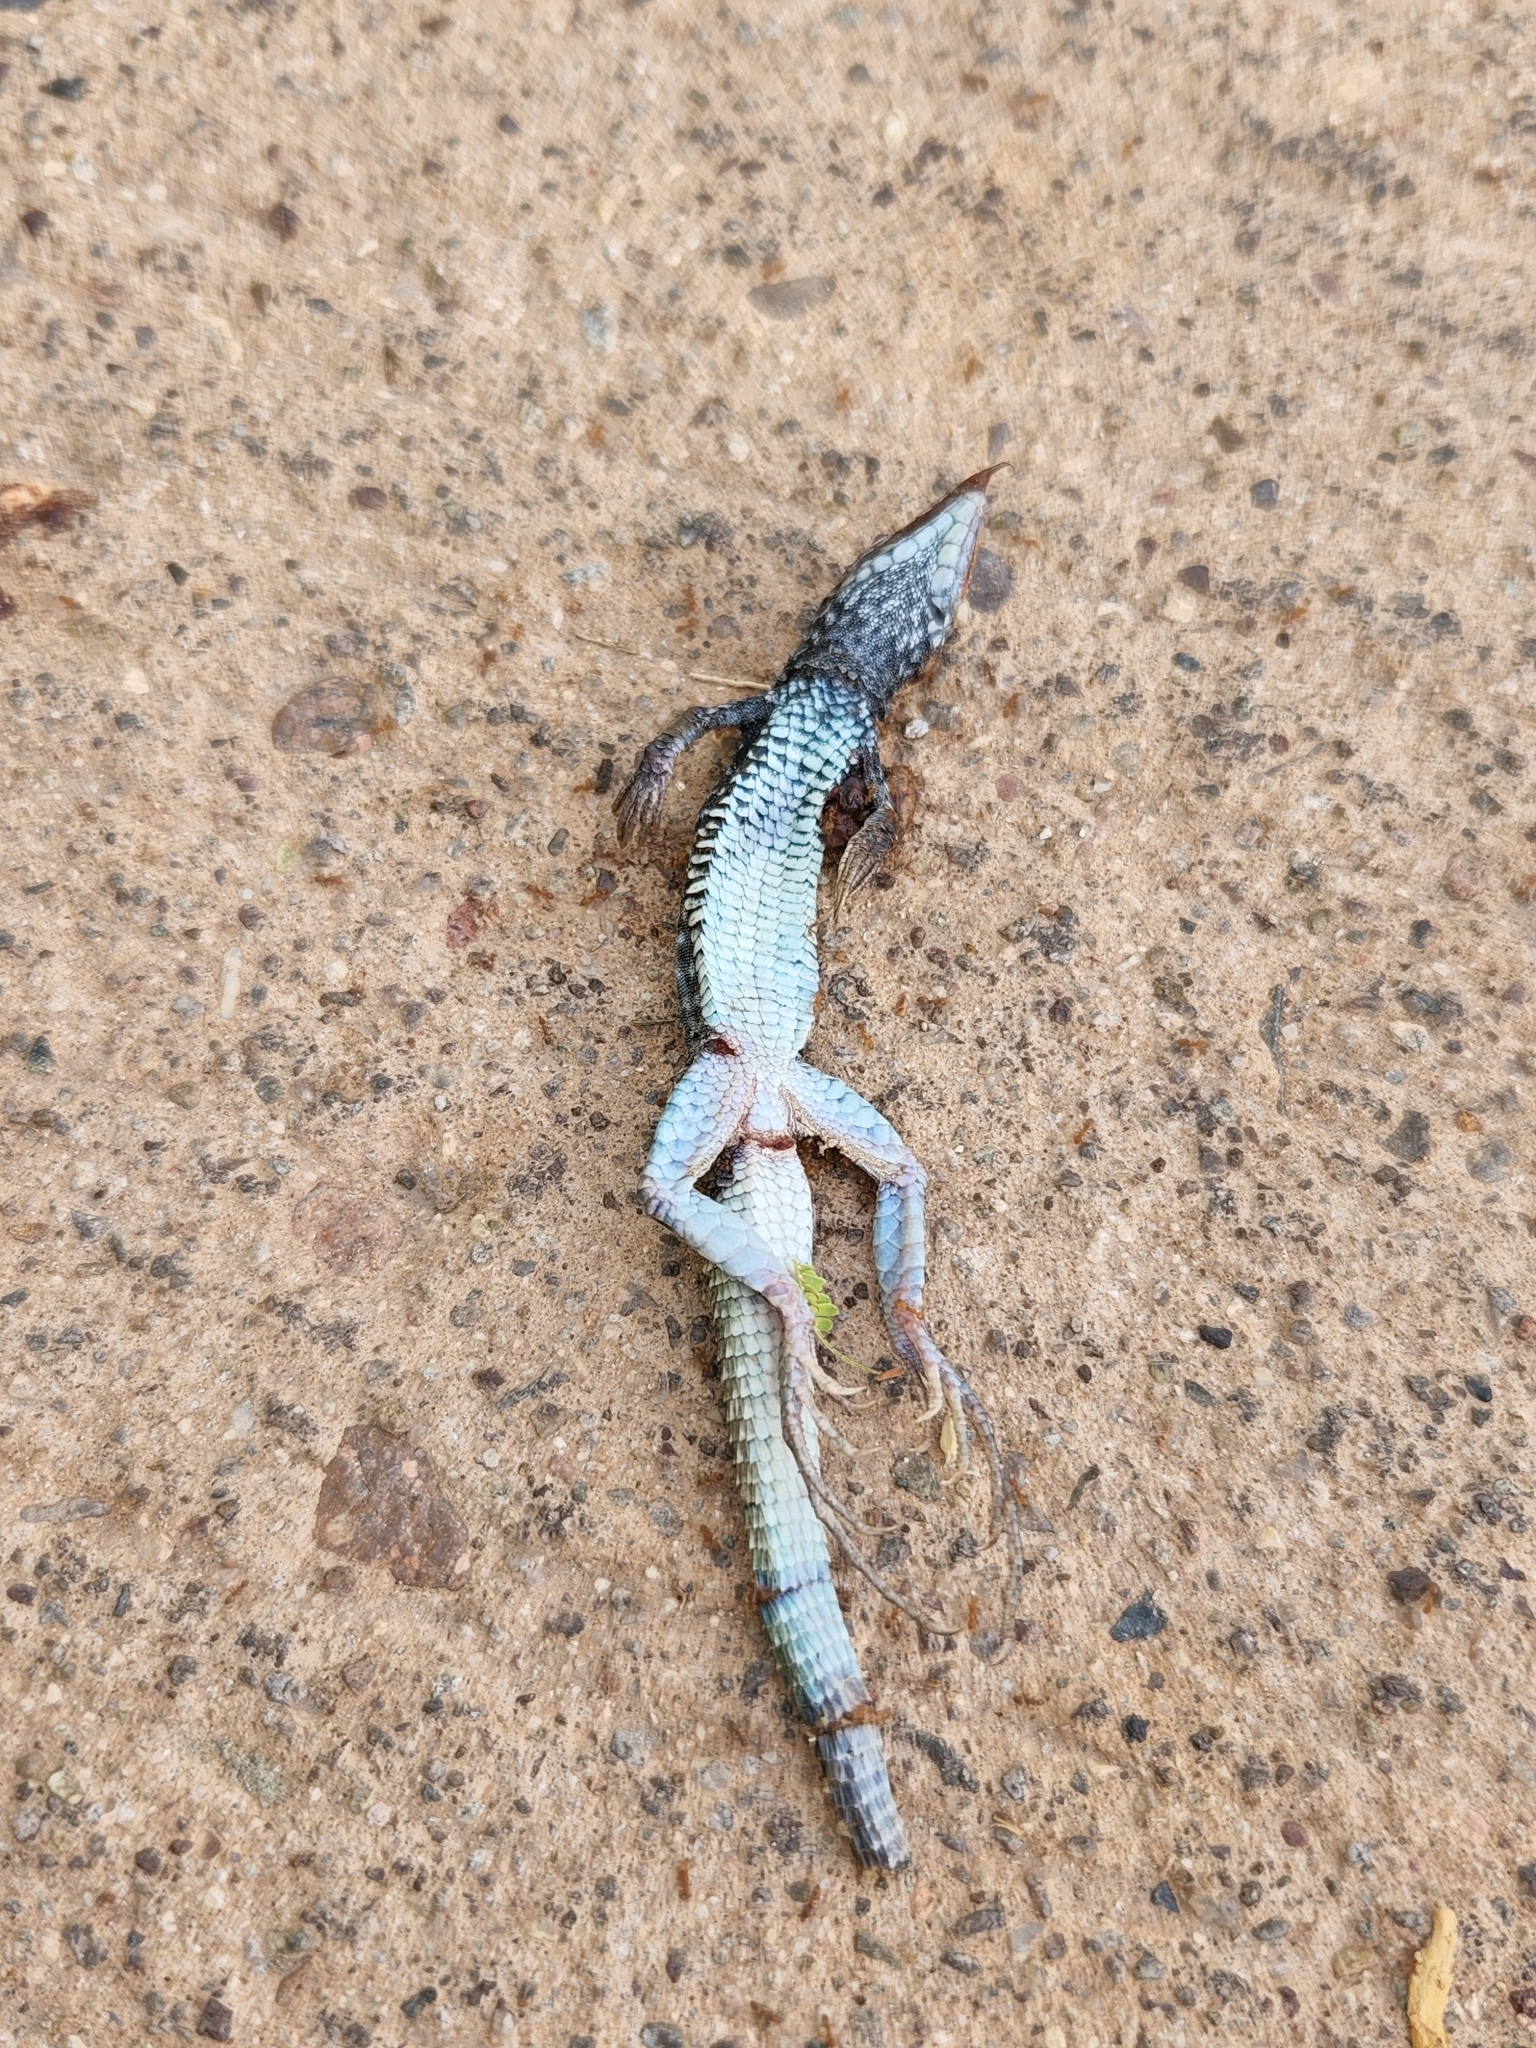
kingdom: Animalia
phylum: Chordata
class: Squamata
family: Teiidae
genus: Aspidoscelis
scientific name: Aspidoscelis tigris
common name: Tiger whiptail
